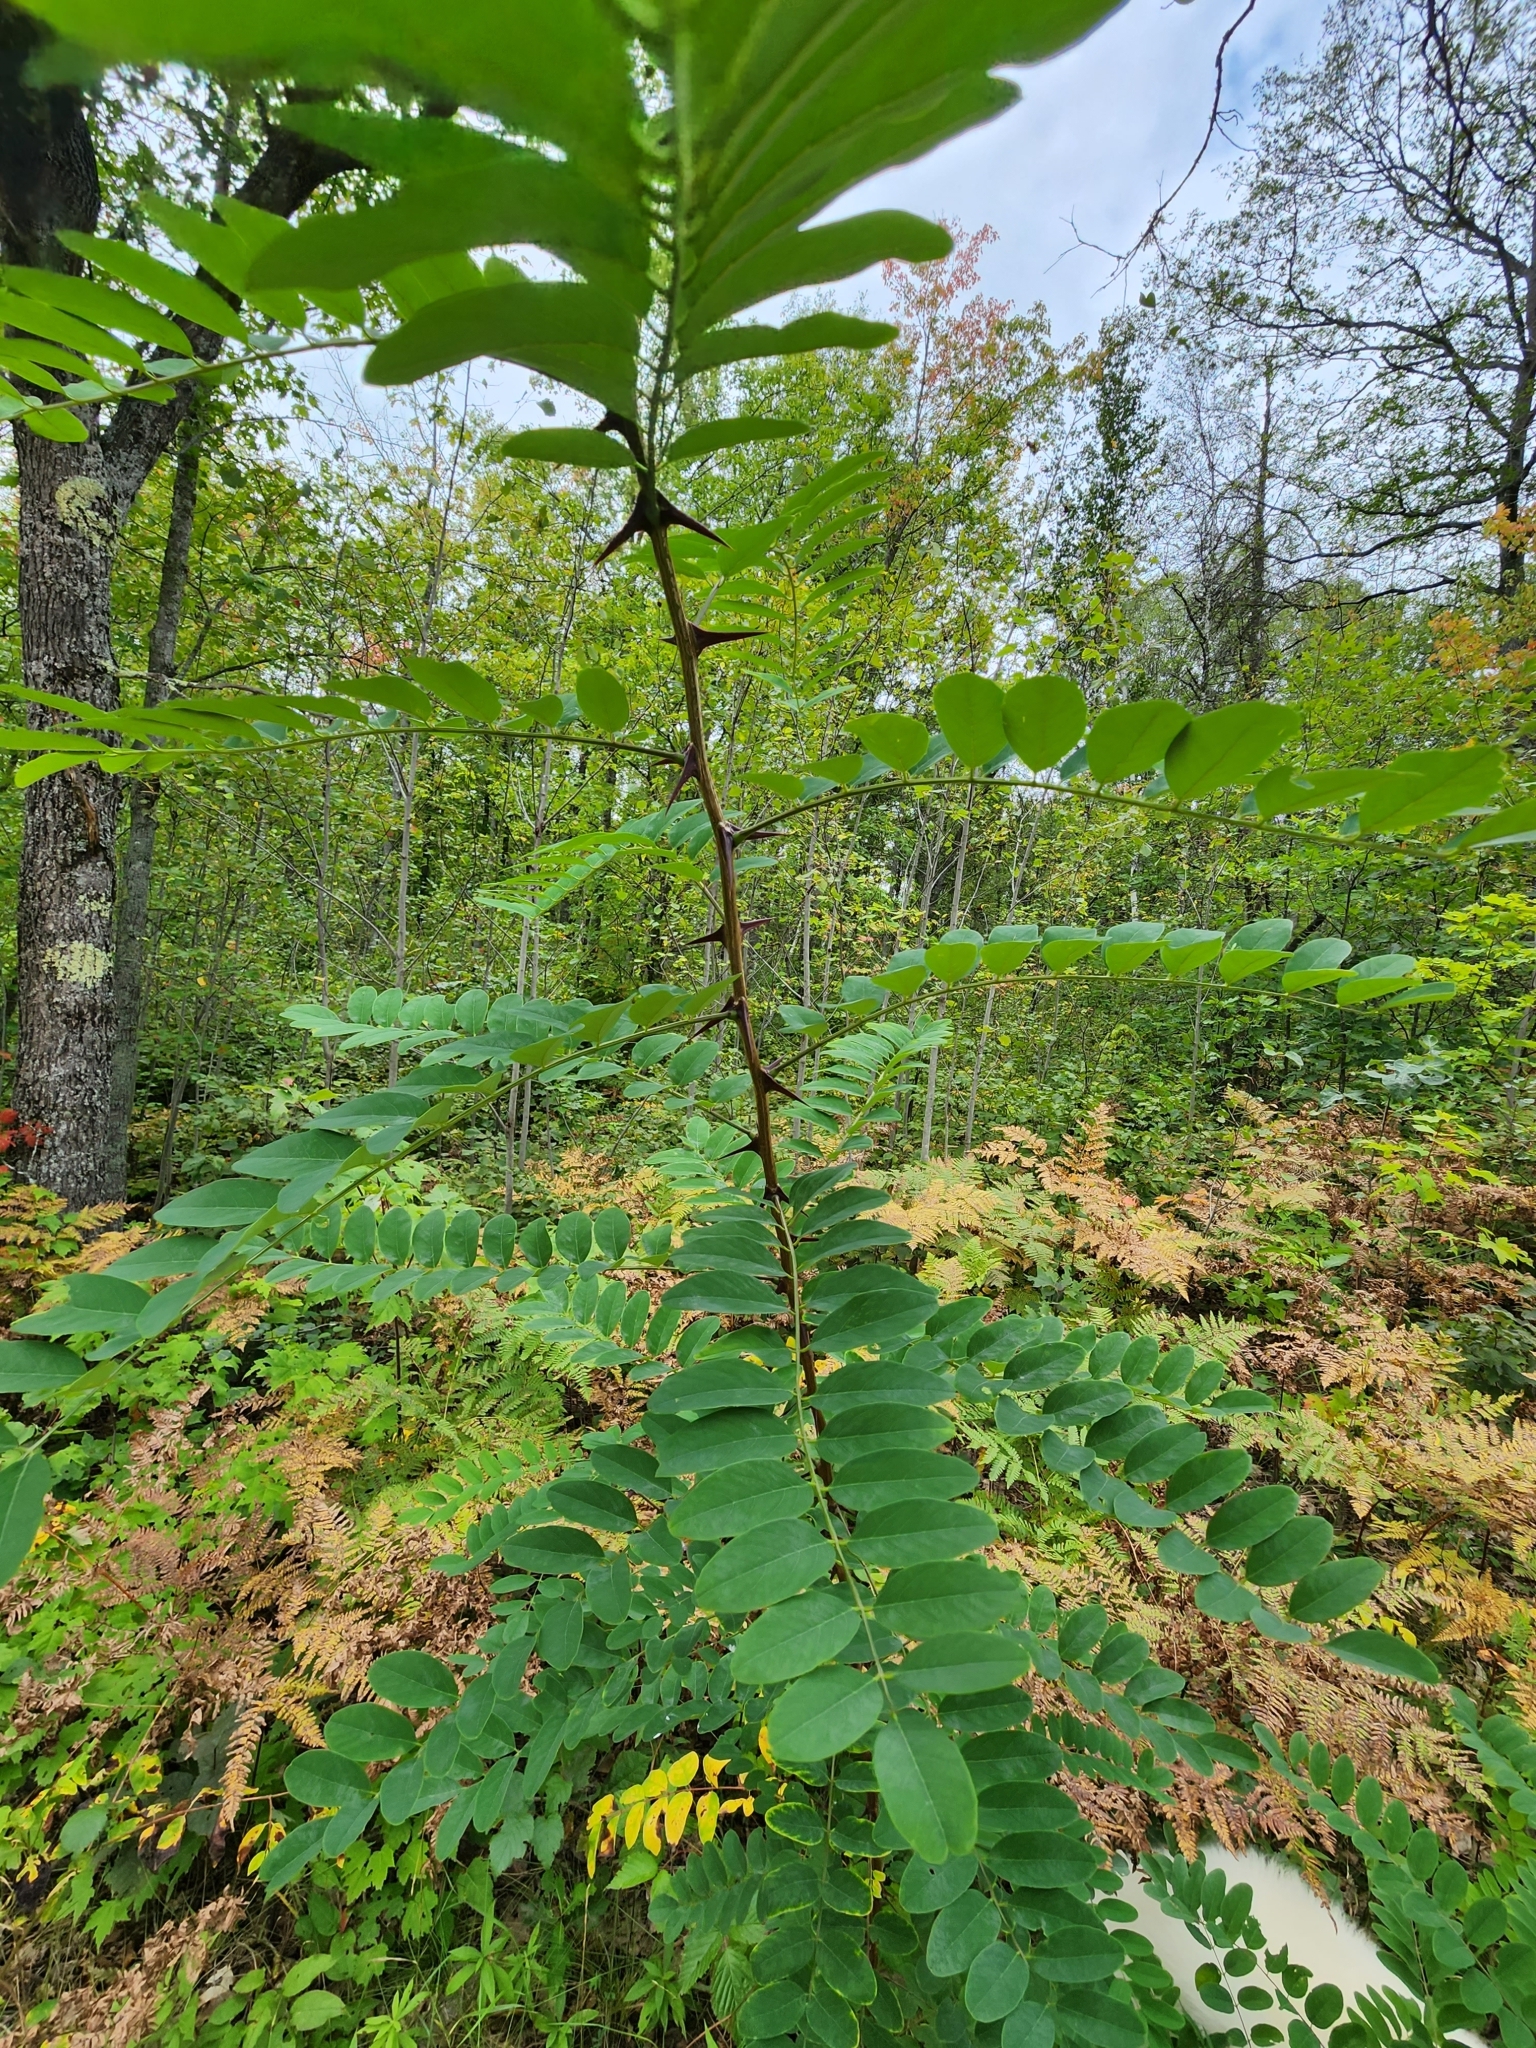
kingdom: Plantae
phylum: Tracheophyta
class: Magnoliopsida
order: Fabales
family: Fabaceae
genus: Robinia
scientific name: Robinia pseudoacacia
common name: Black locust
